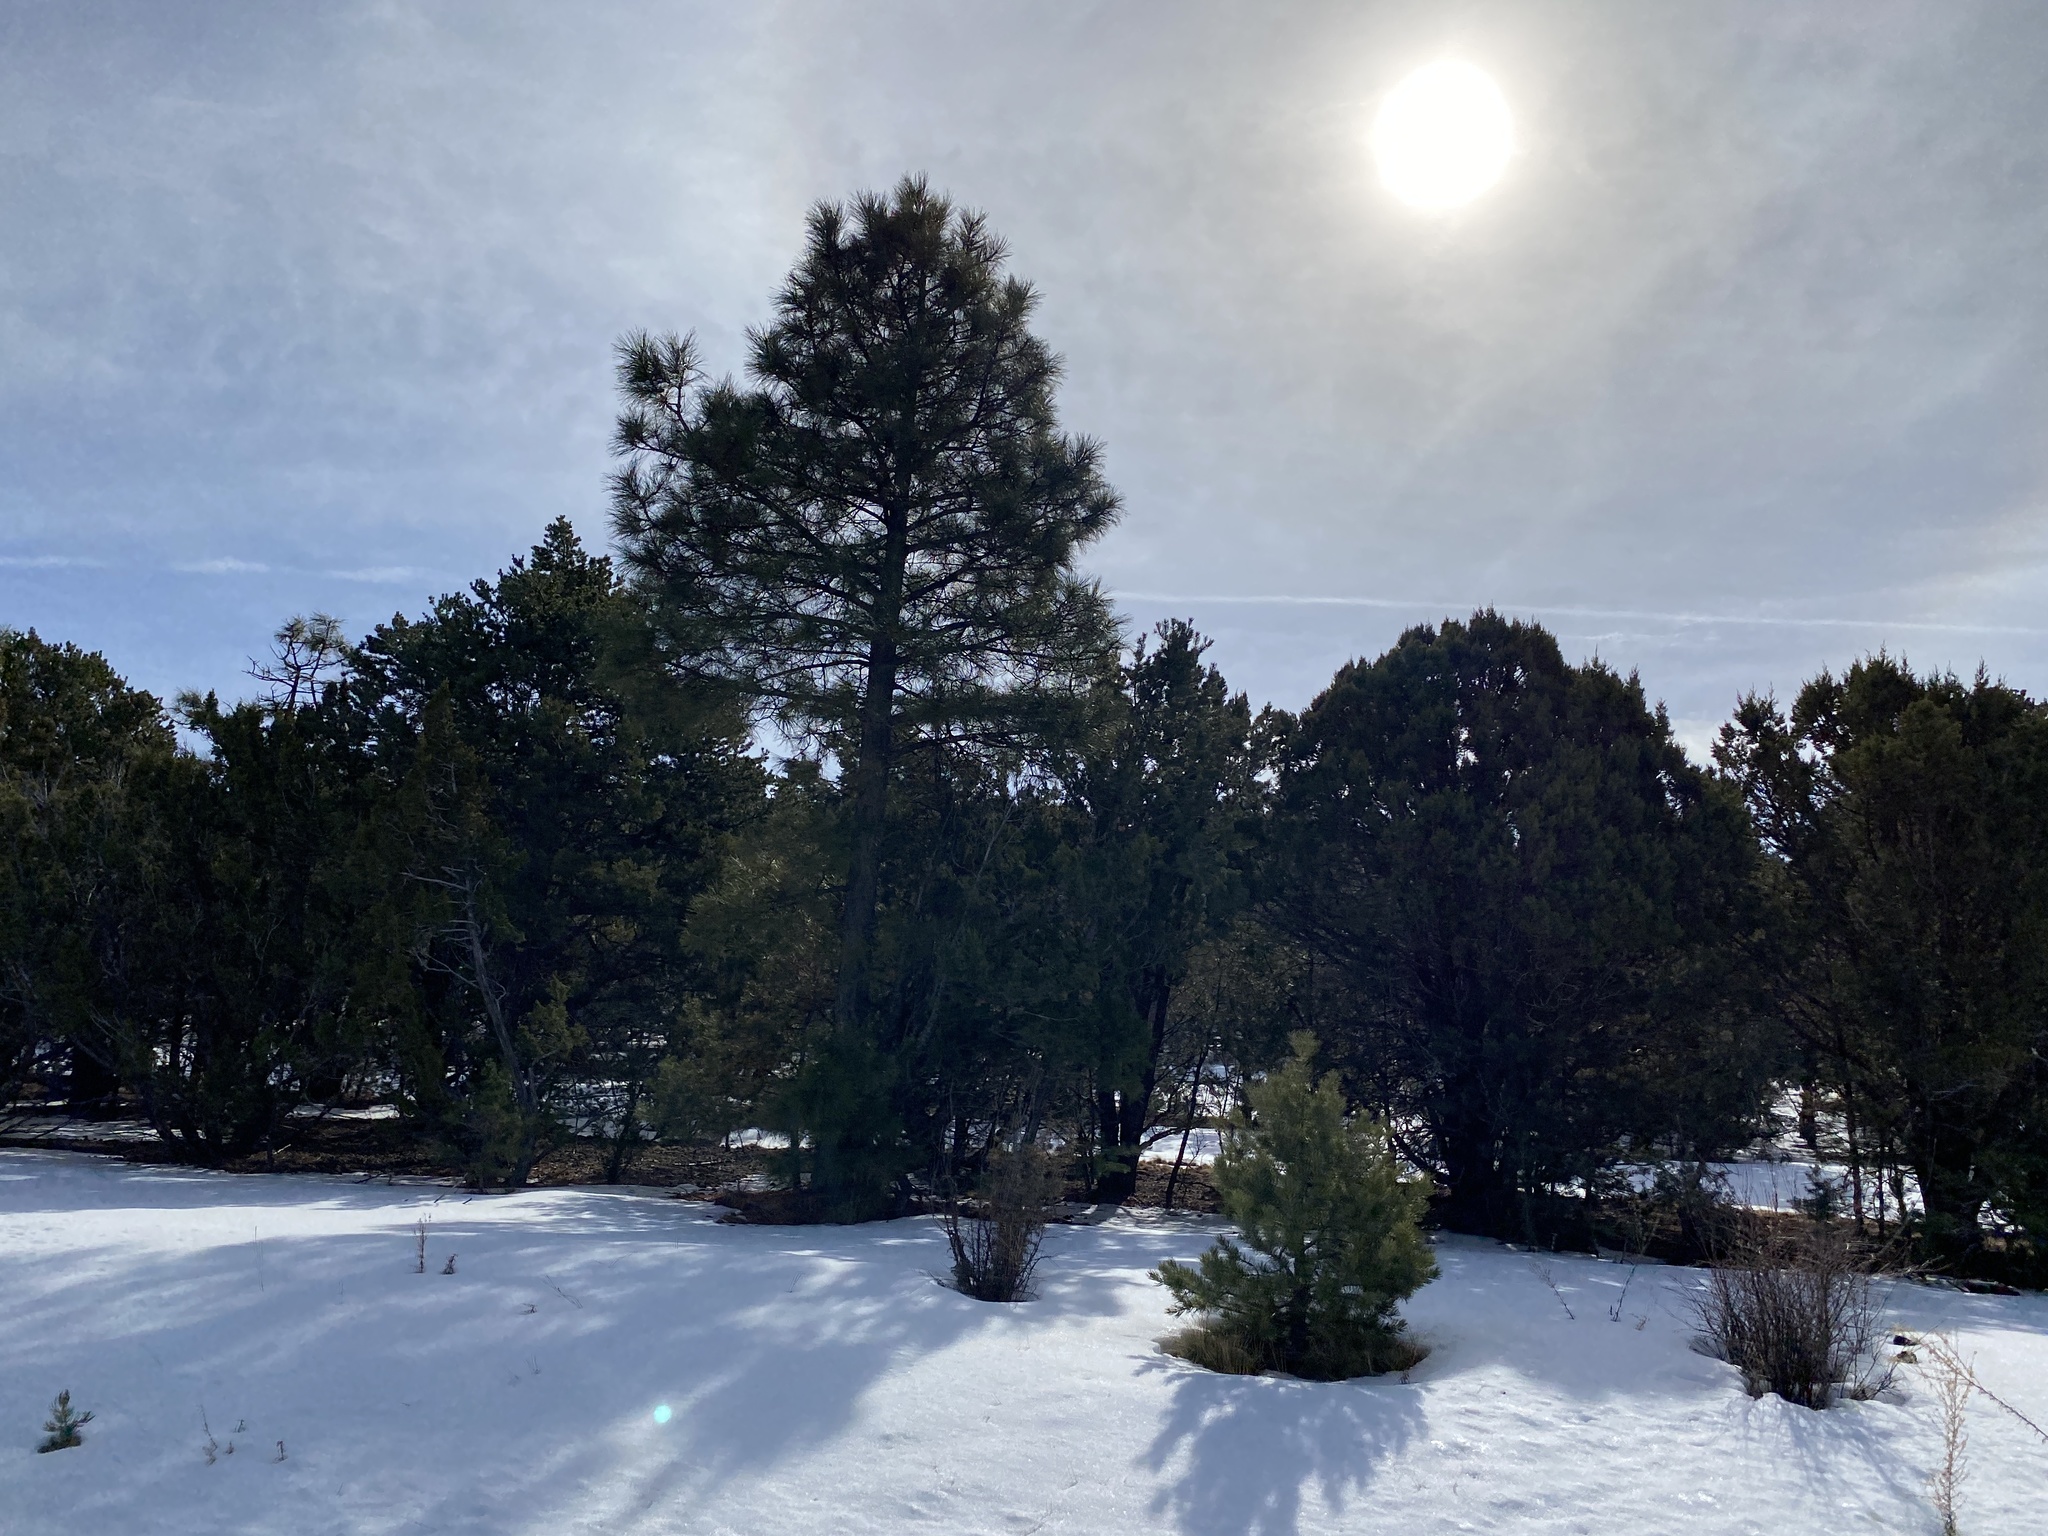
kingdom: Plantae
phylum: Tracheophyta
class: Pinopsida
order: Pinales
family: Pinaceae
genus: Pinus
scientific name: Pinus ponderosa
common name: Western yellow-pine
